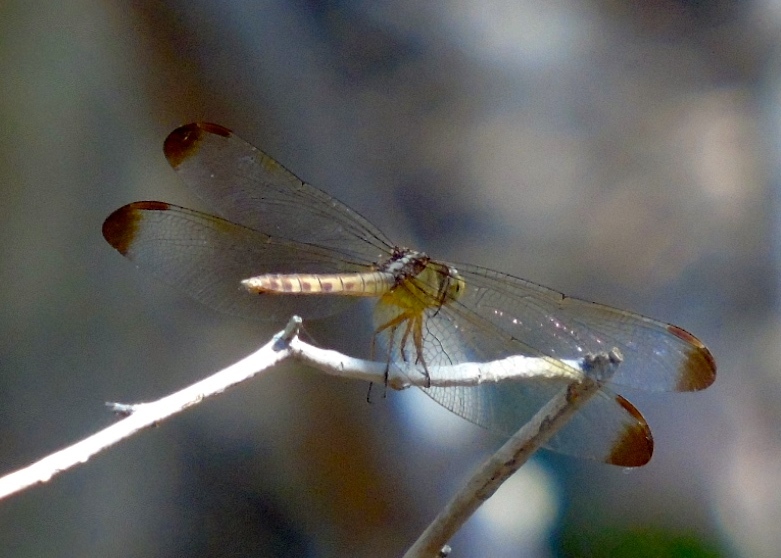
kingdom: Animalia
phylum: Arthropoda
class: Insecta
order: Odonata
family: Libellulidae
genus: Erythrodiplax
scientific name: Erythrodiplax
